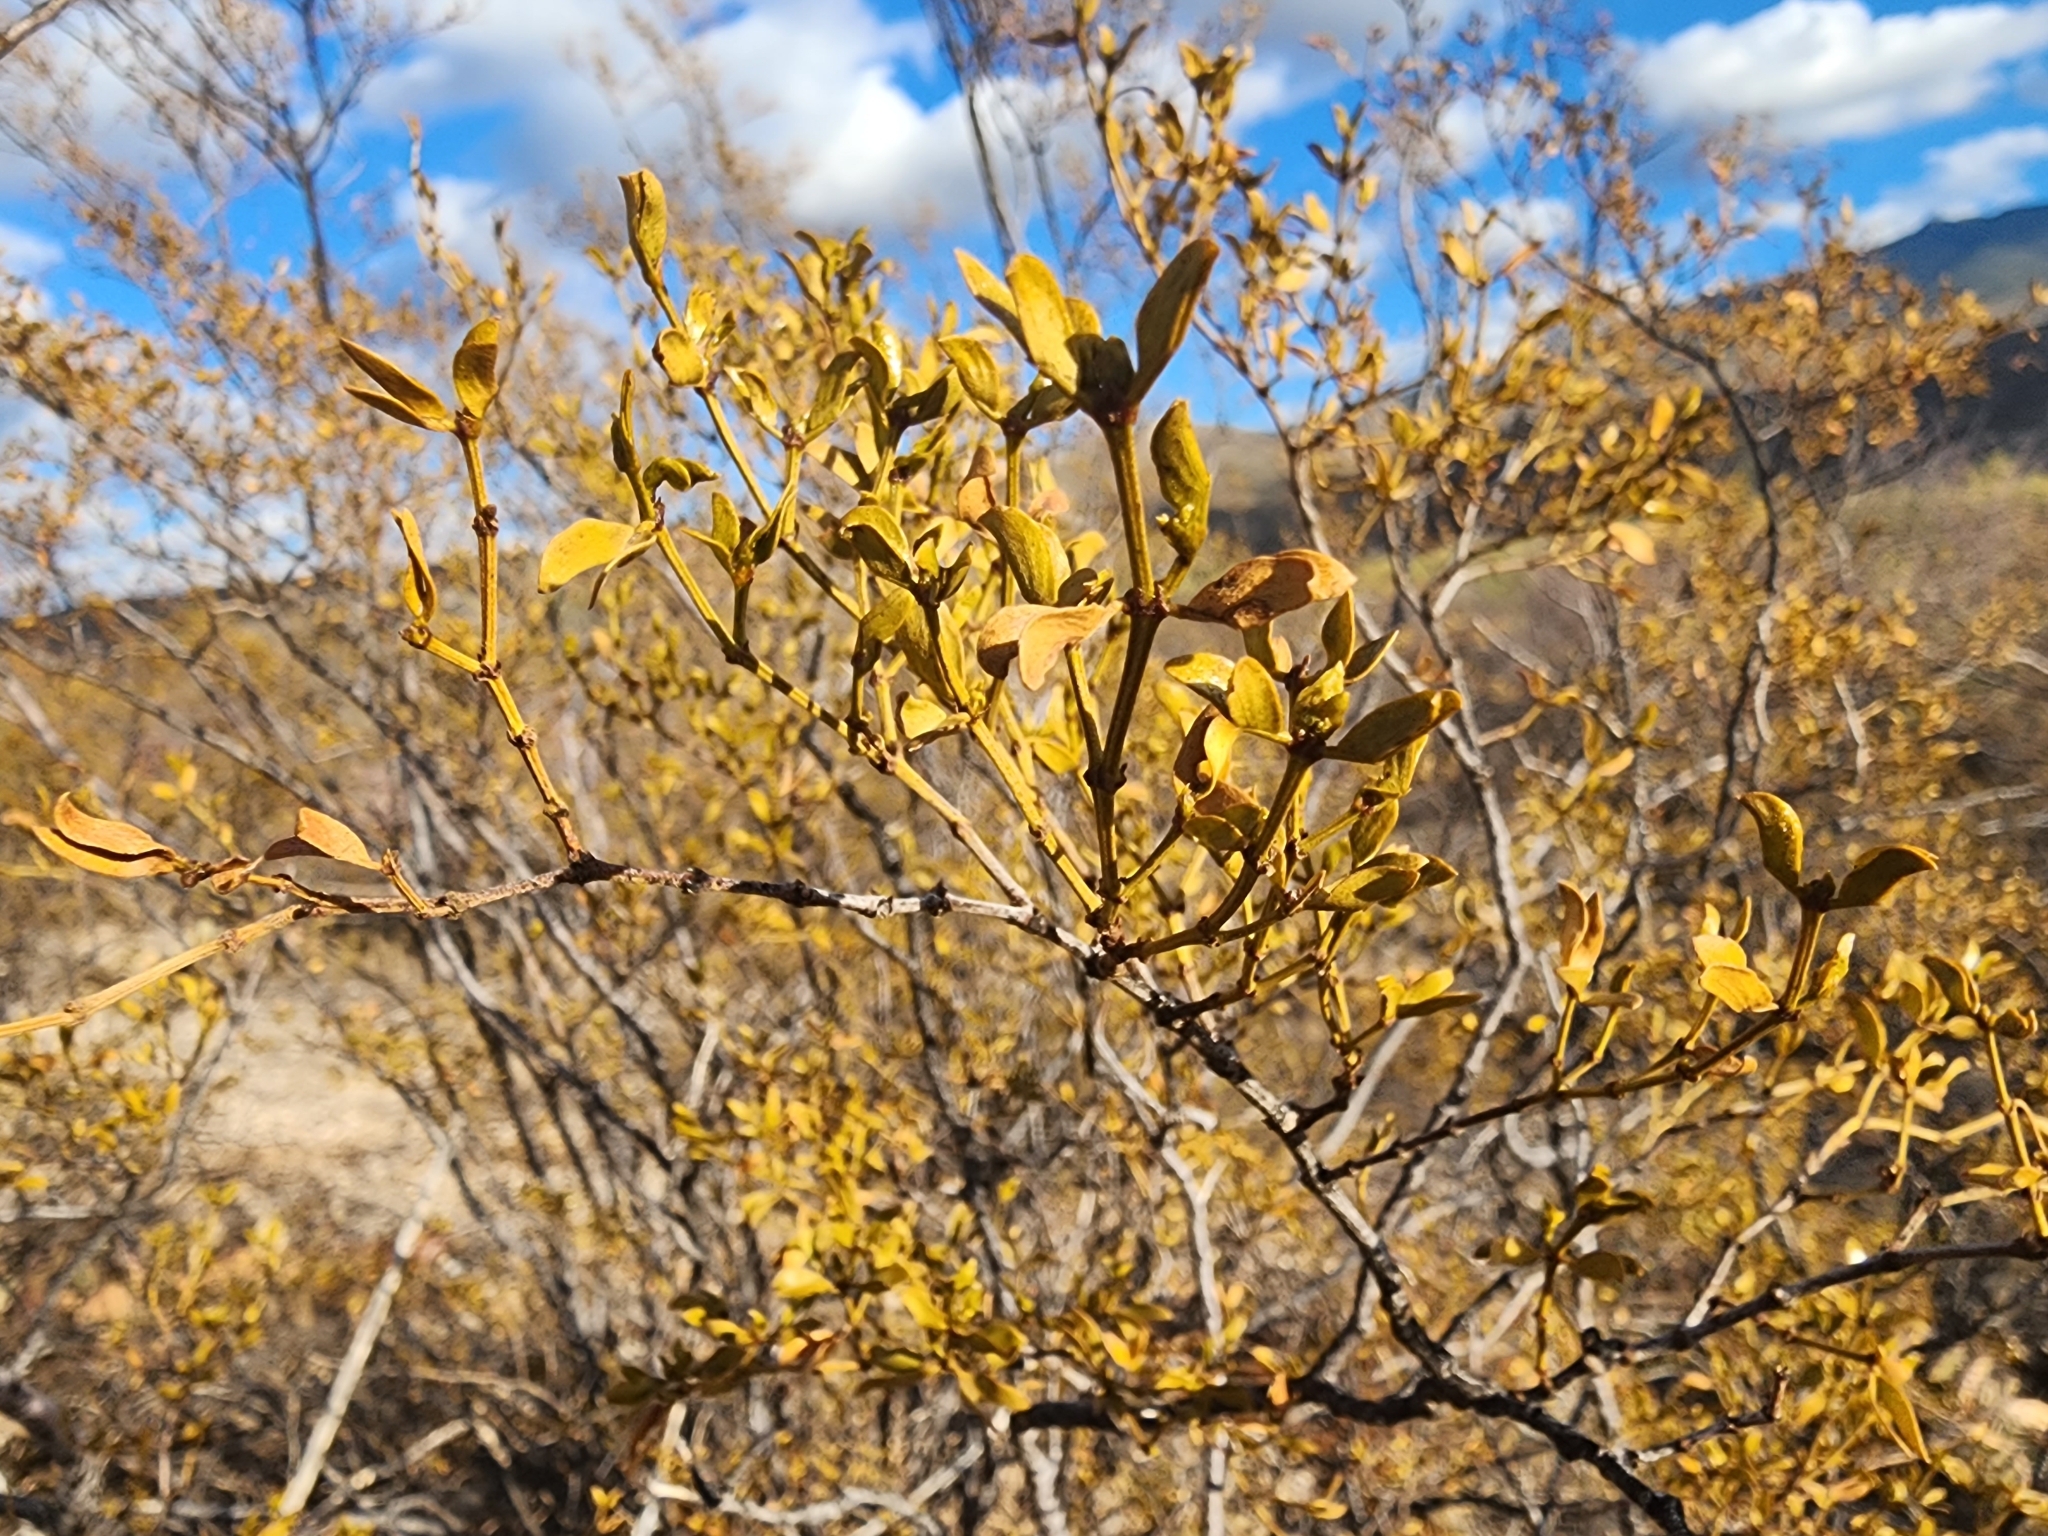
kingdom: Plantae
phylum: Tracheophyta
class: Magnoliopsida
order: Zygophyllales
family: Zygophyllaceae
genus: Larrea
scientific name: Larrea tridentata
